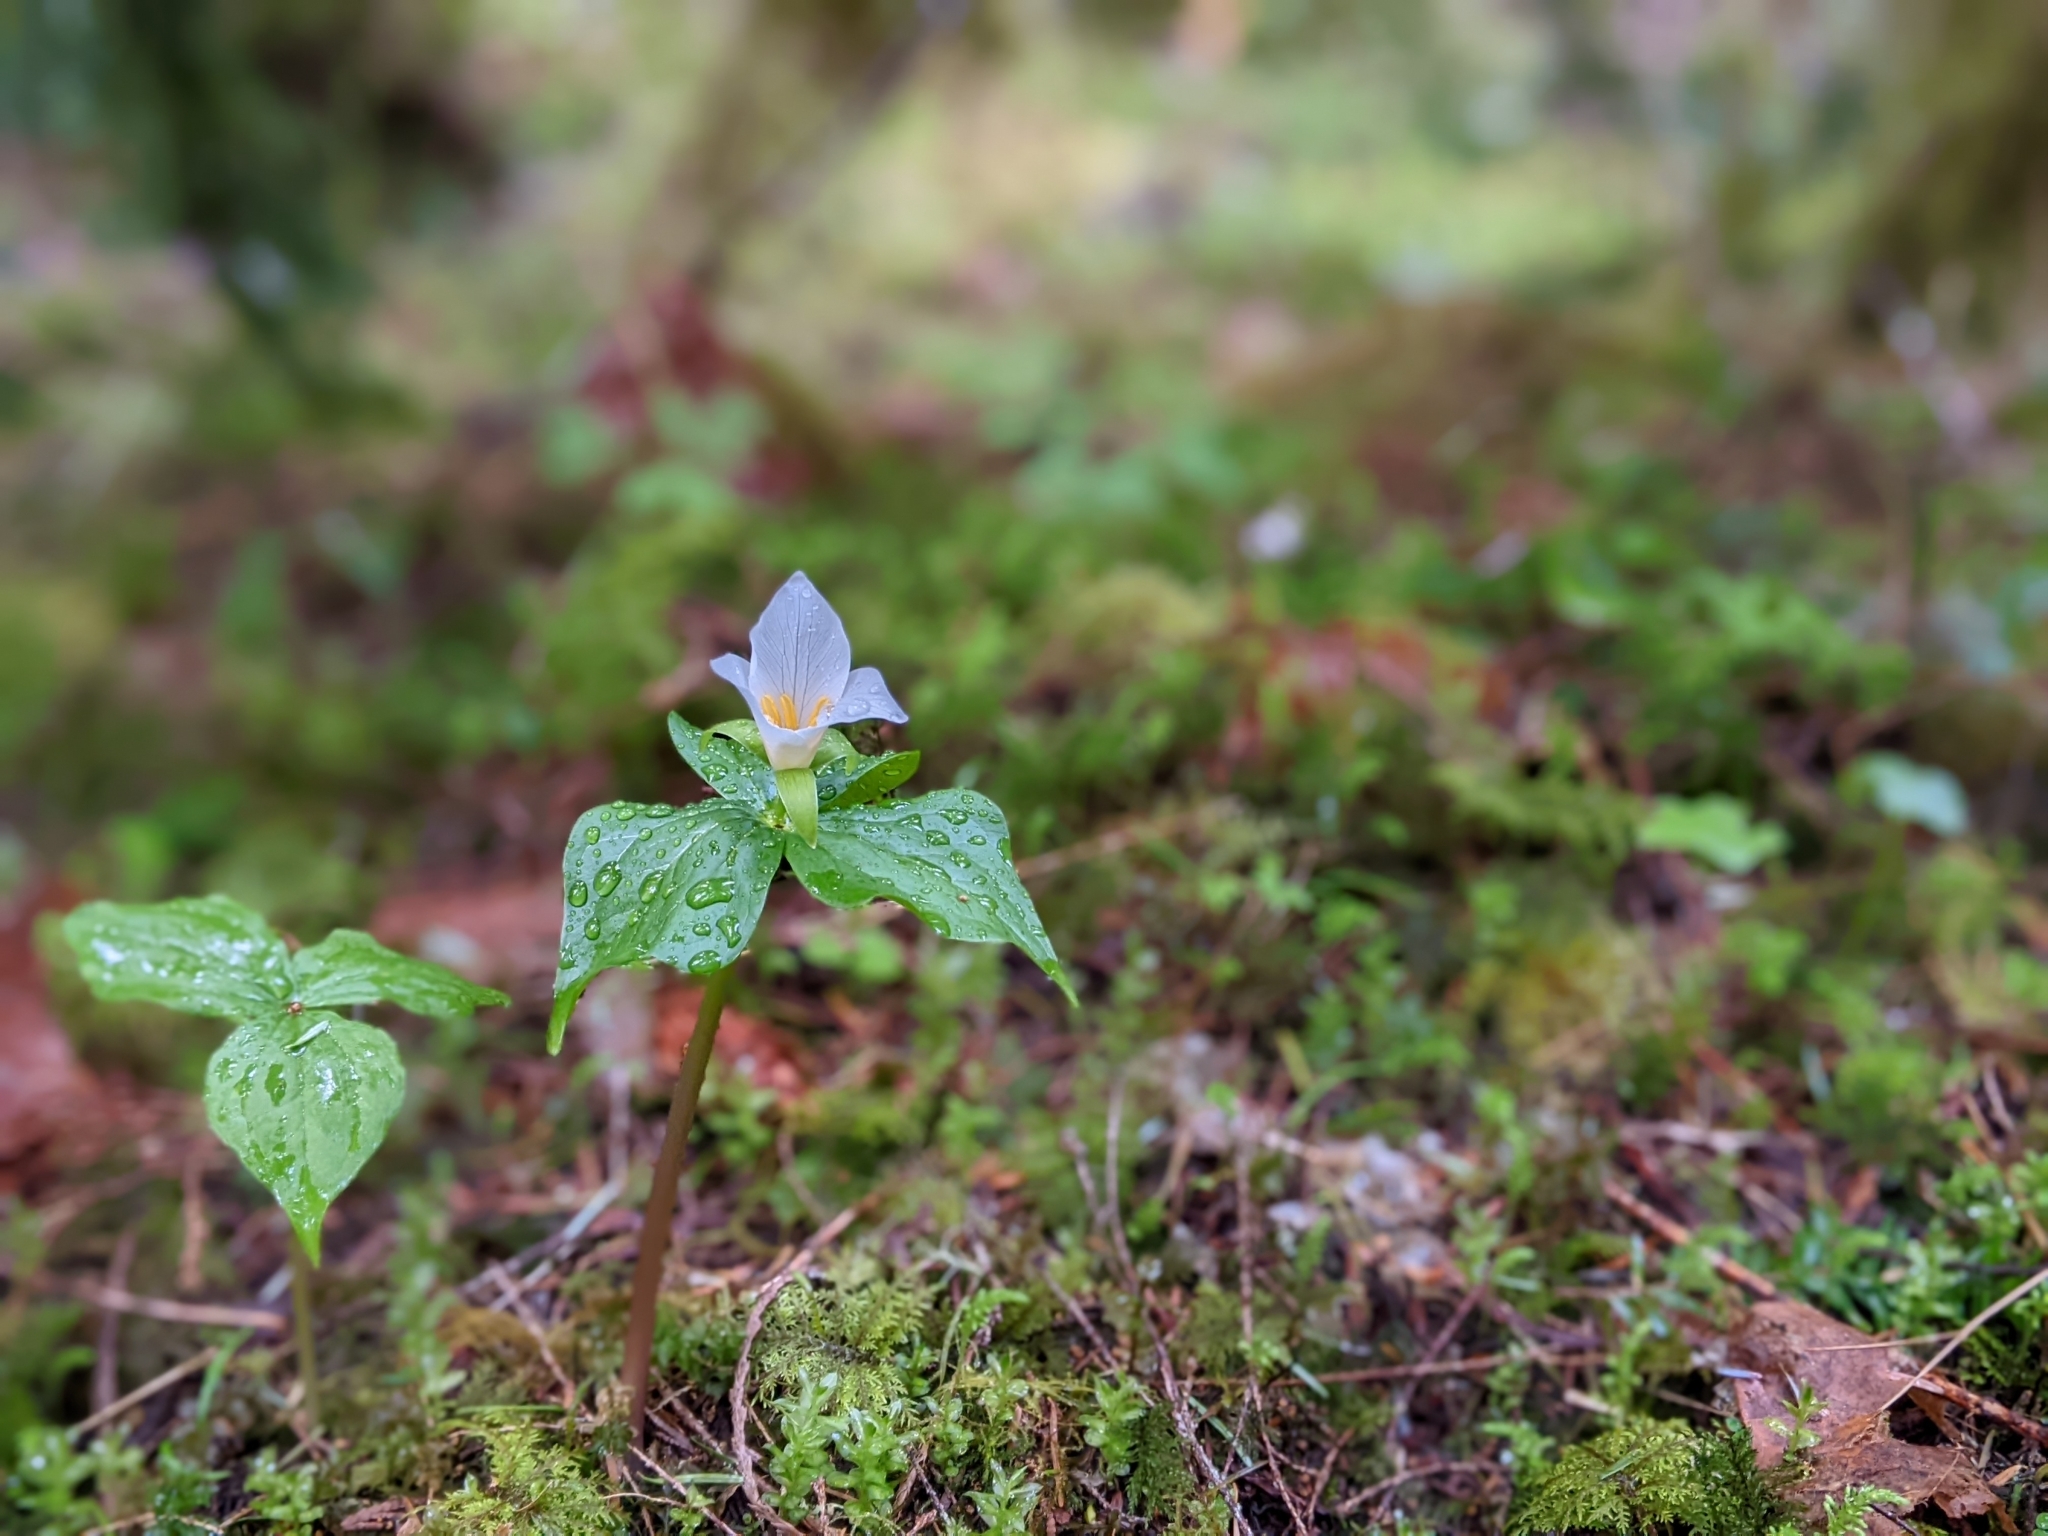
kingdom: Plantae
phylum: Tracheophyta
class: Liliopsida
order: Liliales
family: Melanthiaceae
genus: Trillium
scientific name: Trillium ovatum
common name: Pacific trillium
